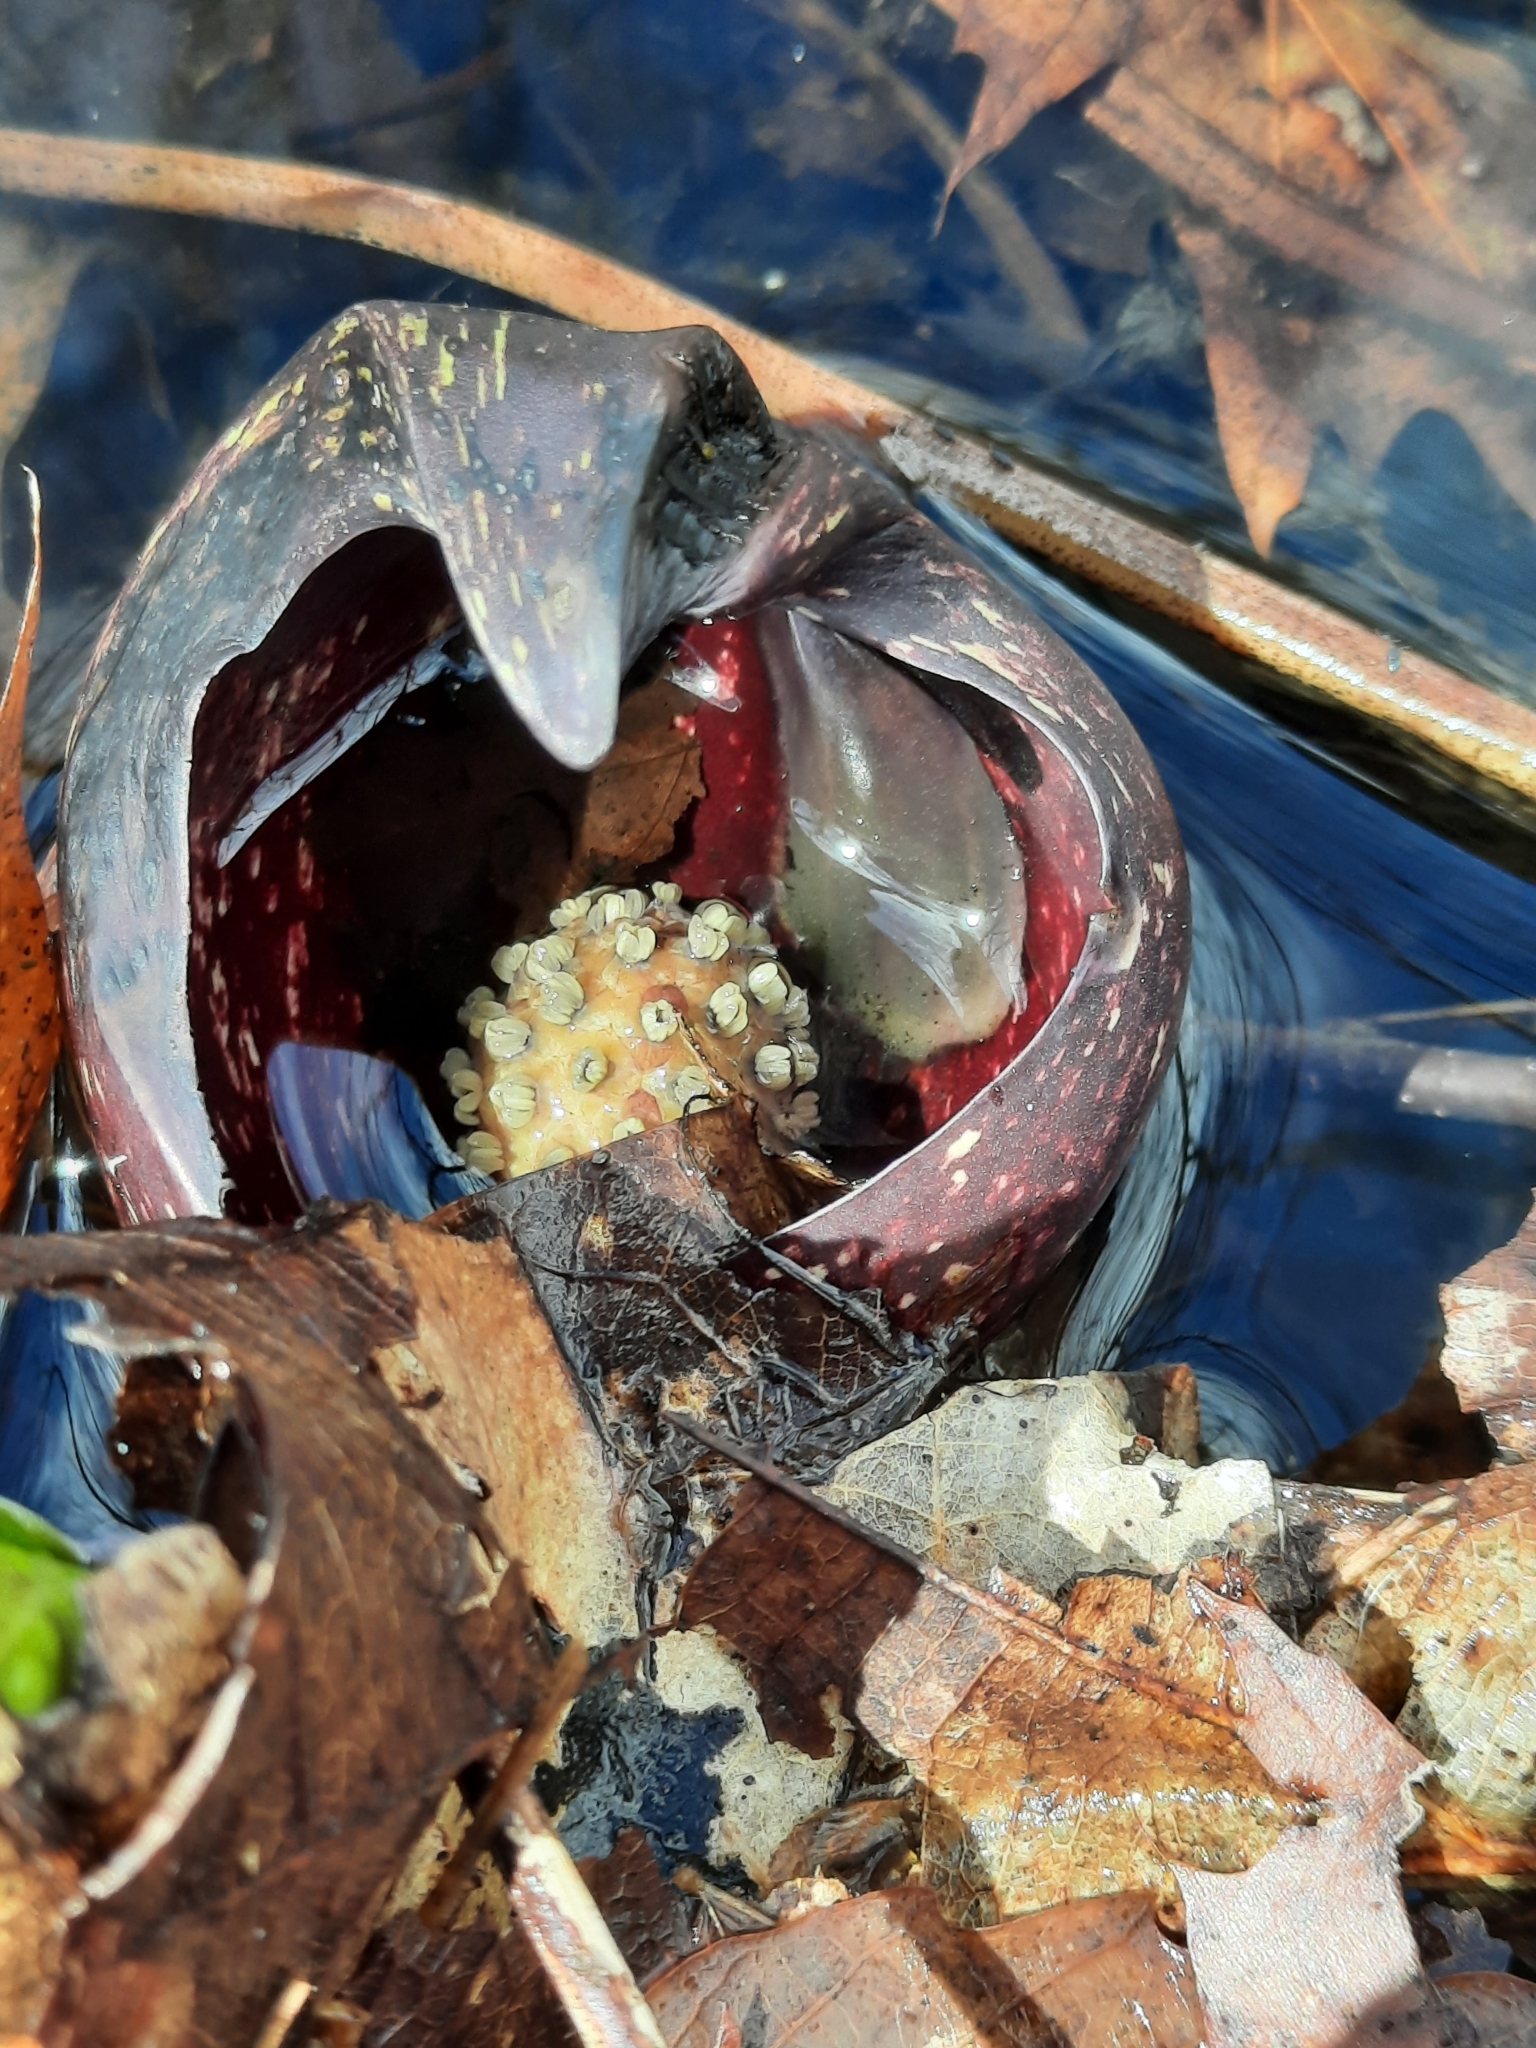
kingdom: Plantae
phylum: Tracheophyta
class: Liliopsida
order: Alismatales
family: Araceae
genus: Symplocarpus
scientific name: Symplocarpus foetidus
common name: Eastern skunk cabbage
